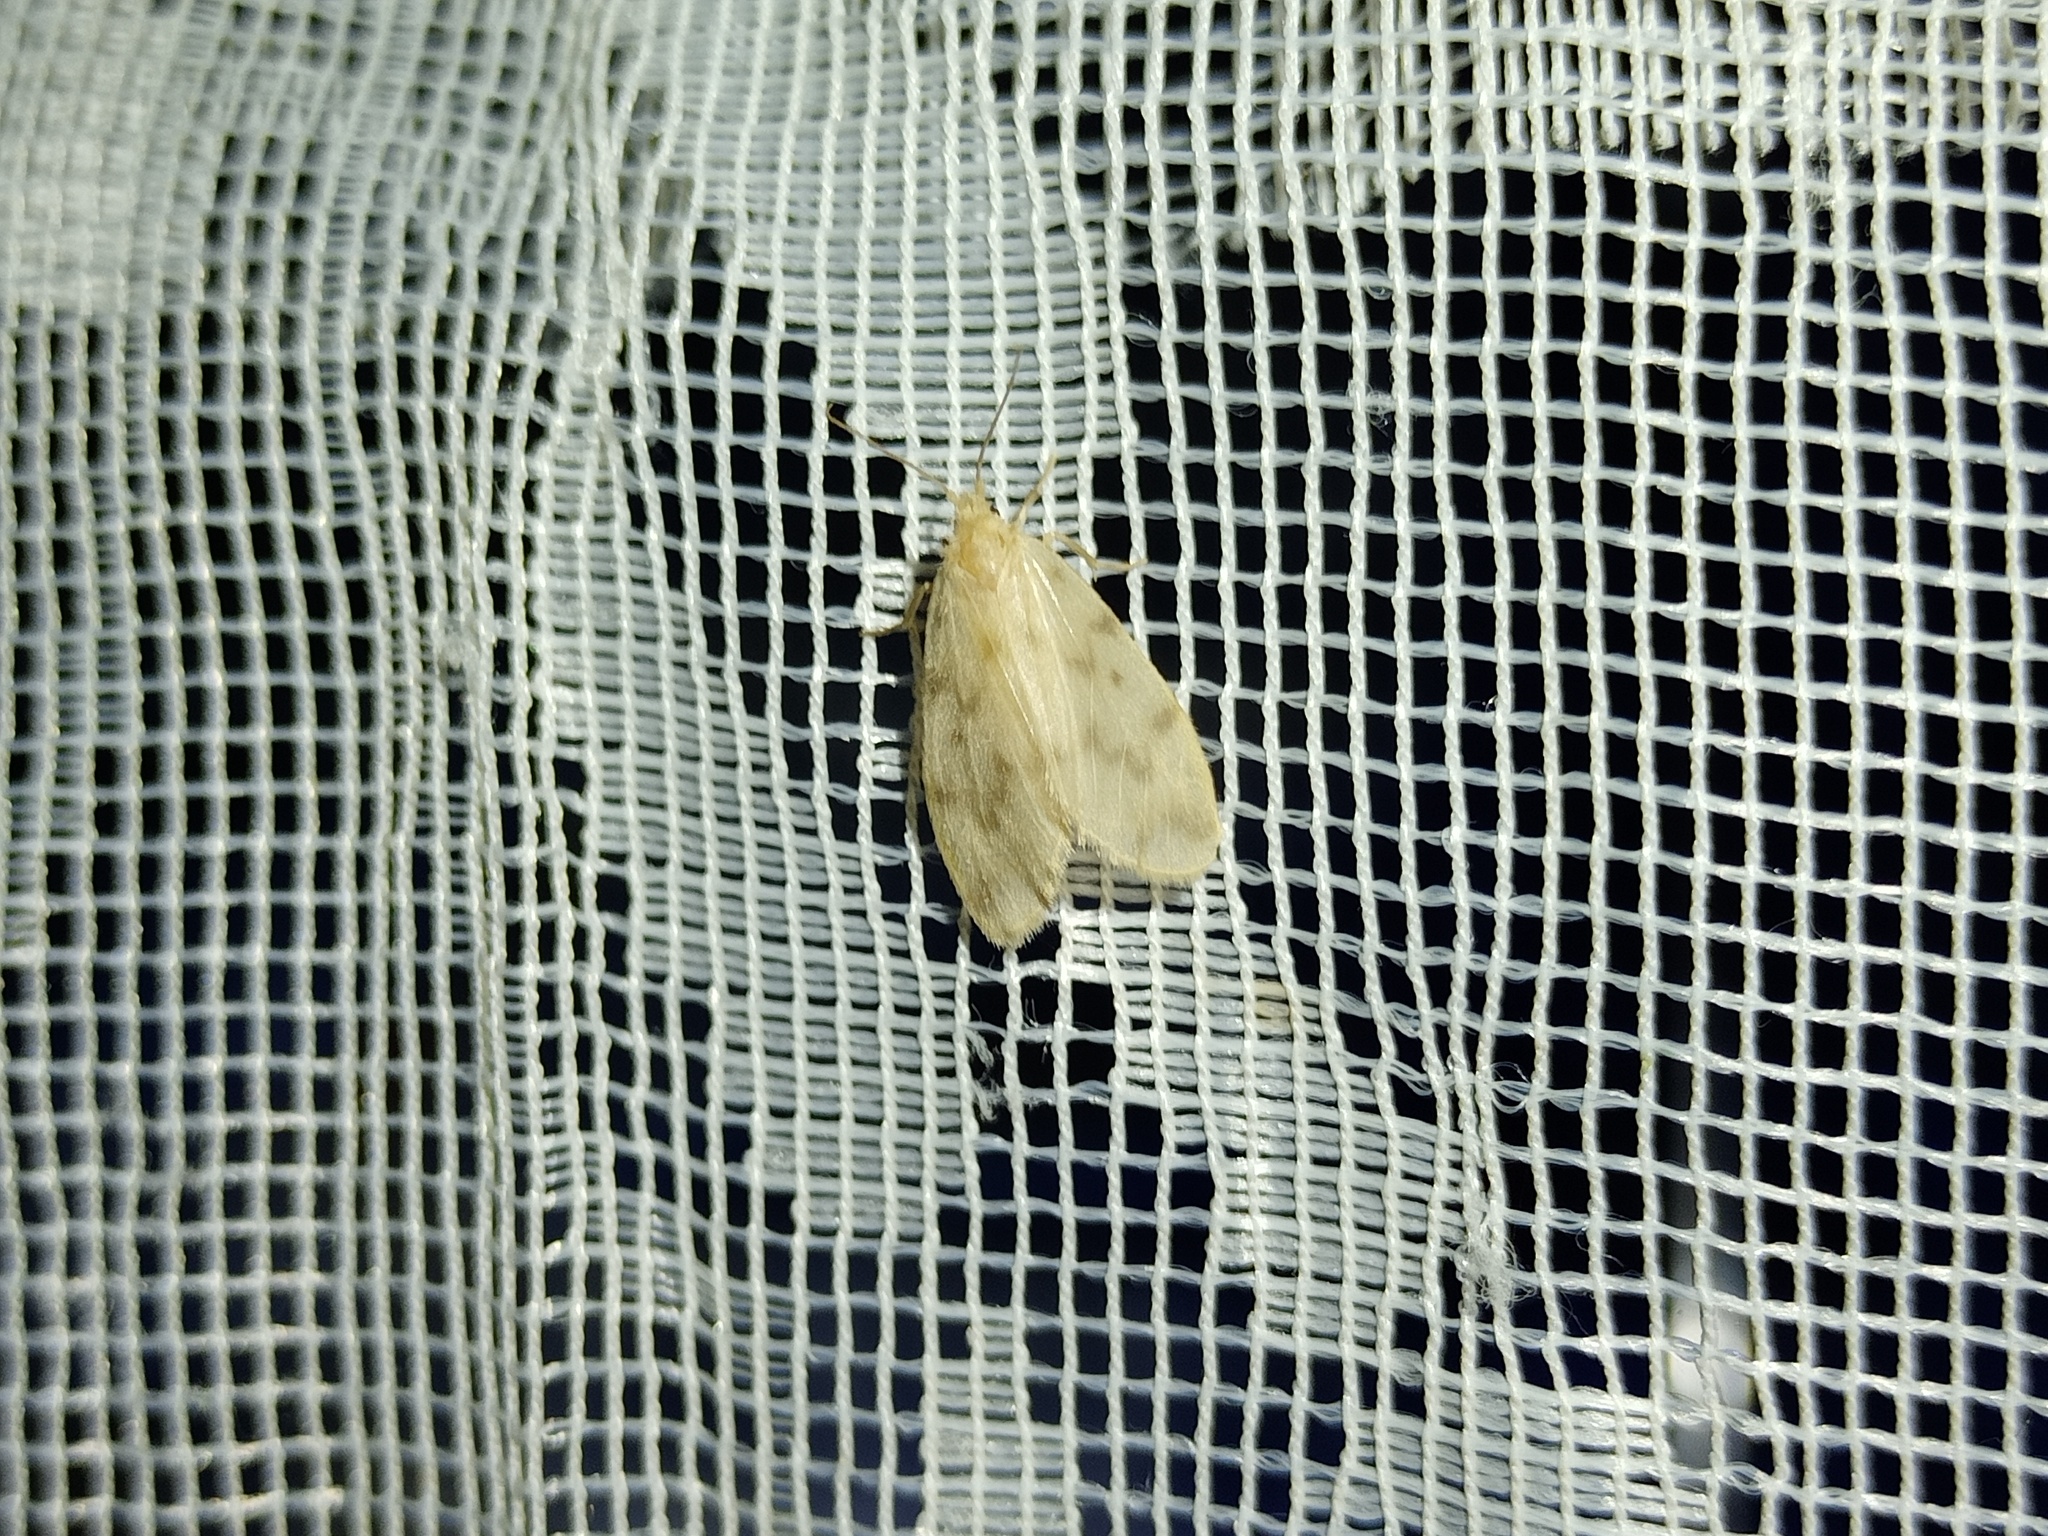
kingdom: Animalia
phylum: Arthropoda
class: Insecta
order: Lepidoptera
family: Erebidae
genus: Nudaria
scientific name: Nudaria mundana
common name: Muslin footman
